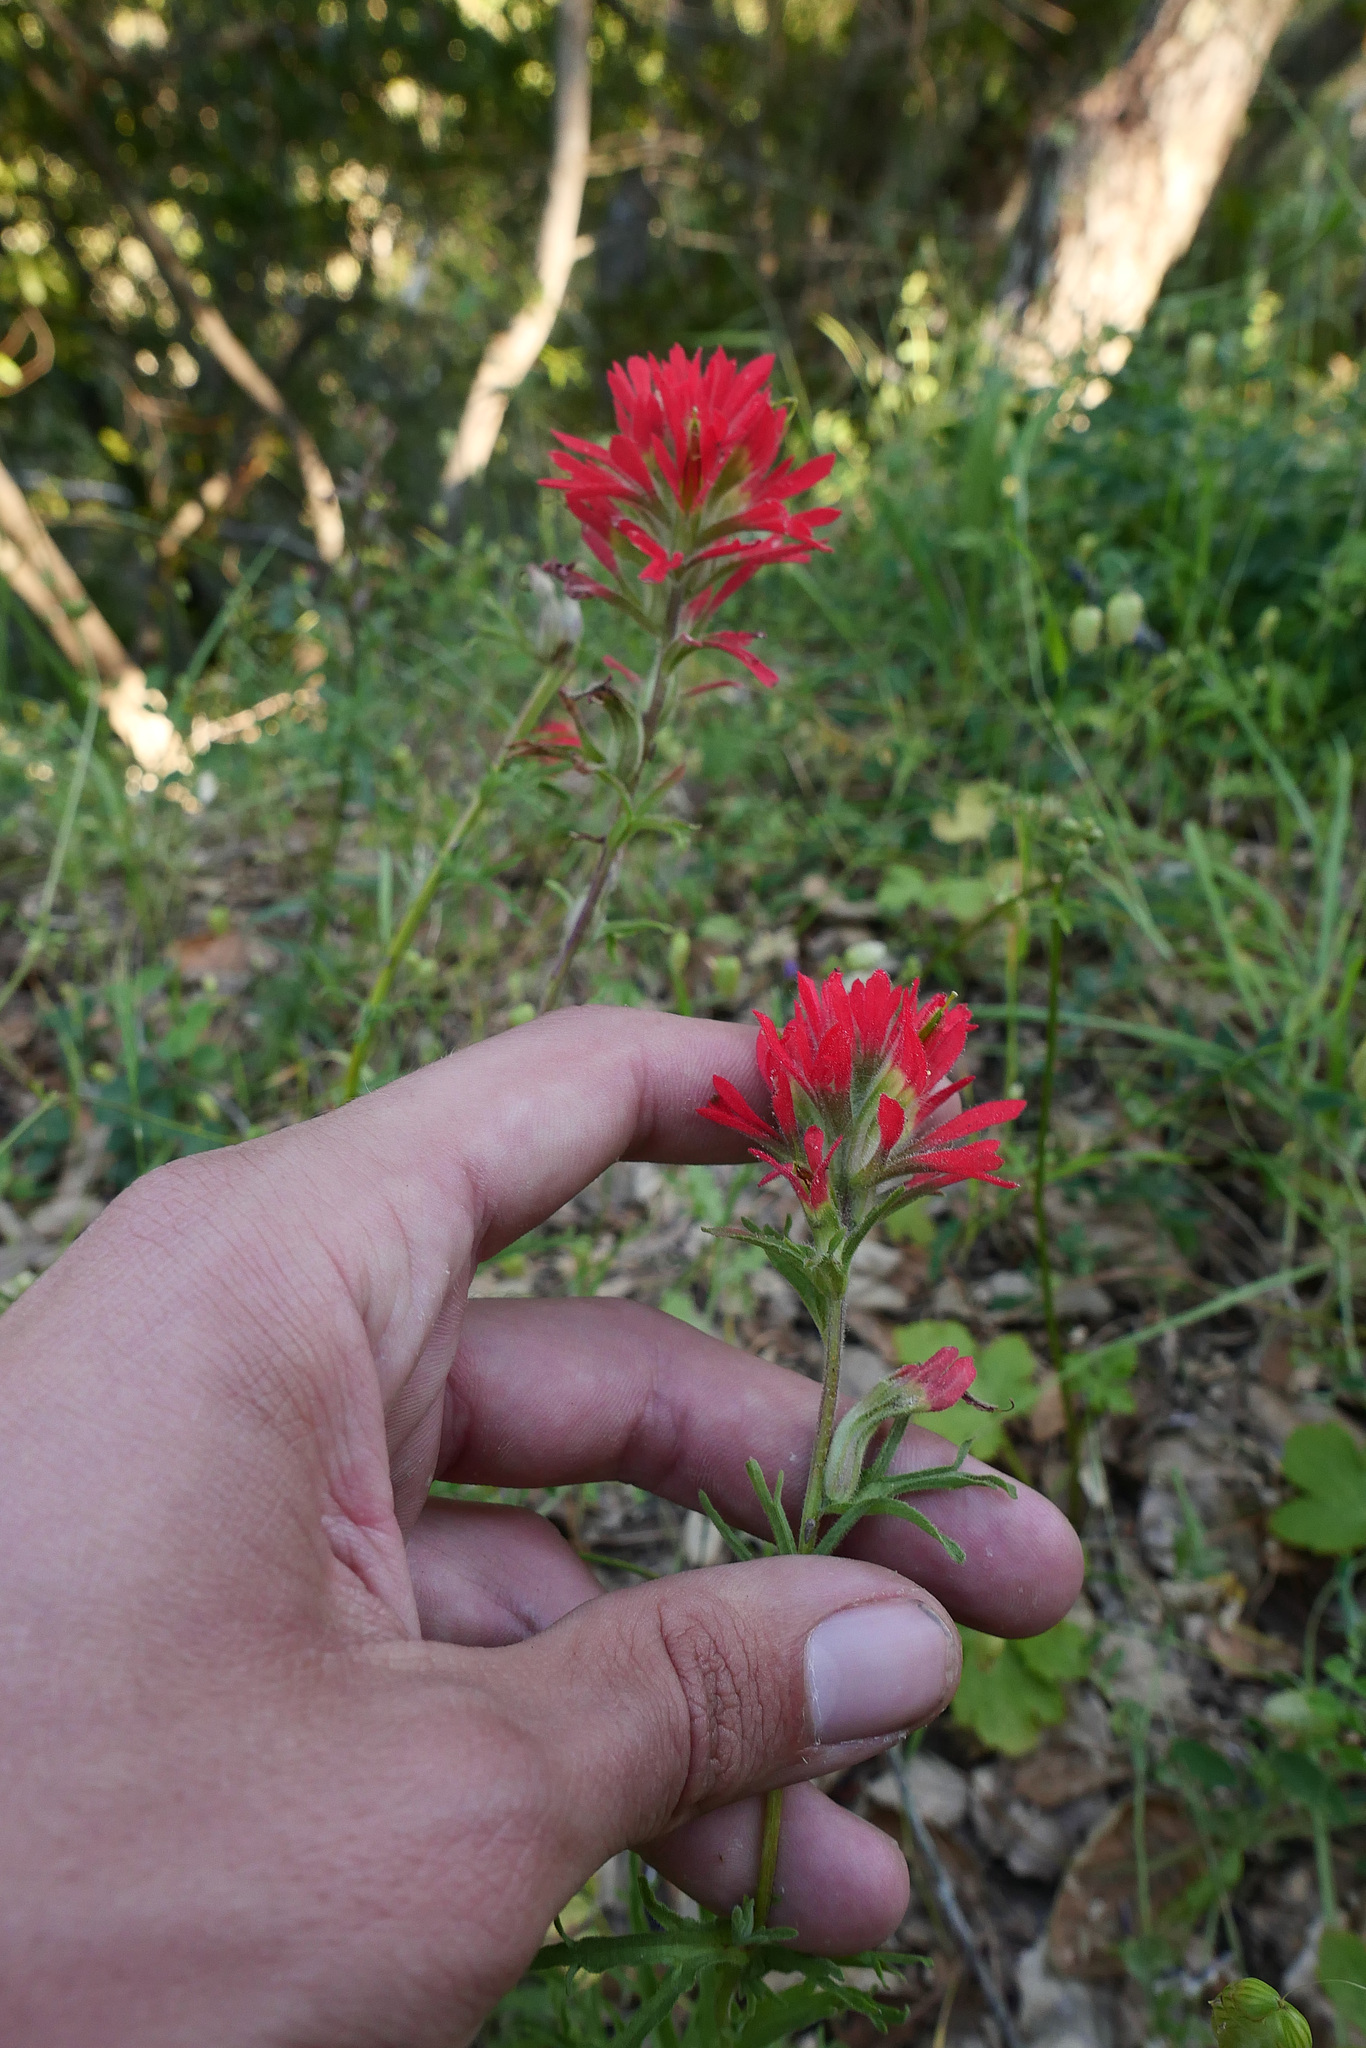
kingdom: Plantae
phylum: Tracheophyta
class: Magnoliopsida
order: Lamiales
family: Orobanchaceae
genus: Castilleja
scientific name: Castilleja affinis
